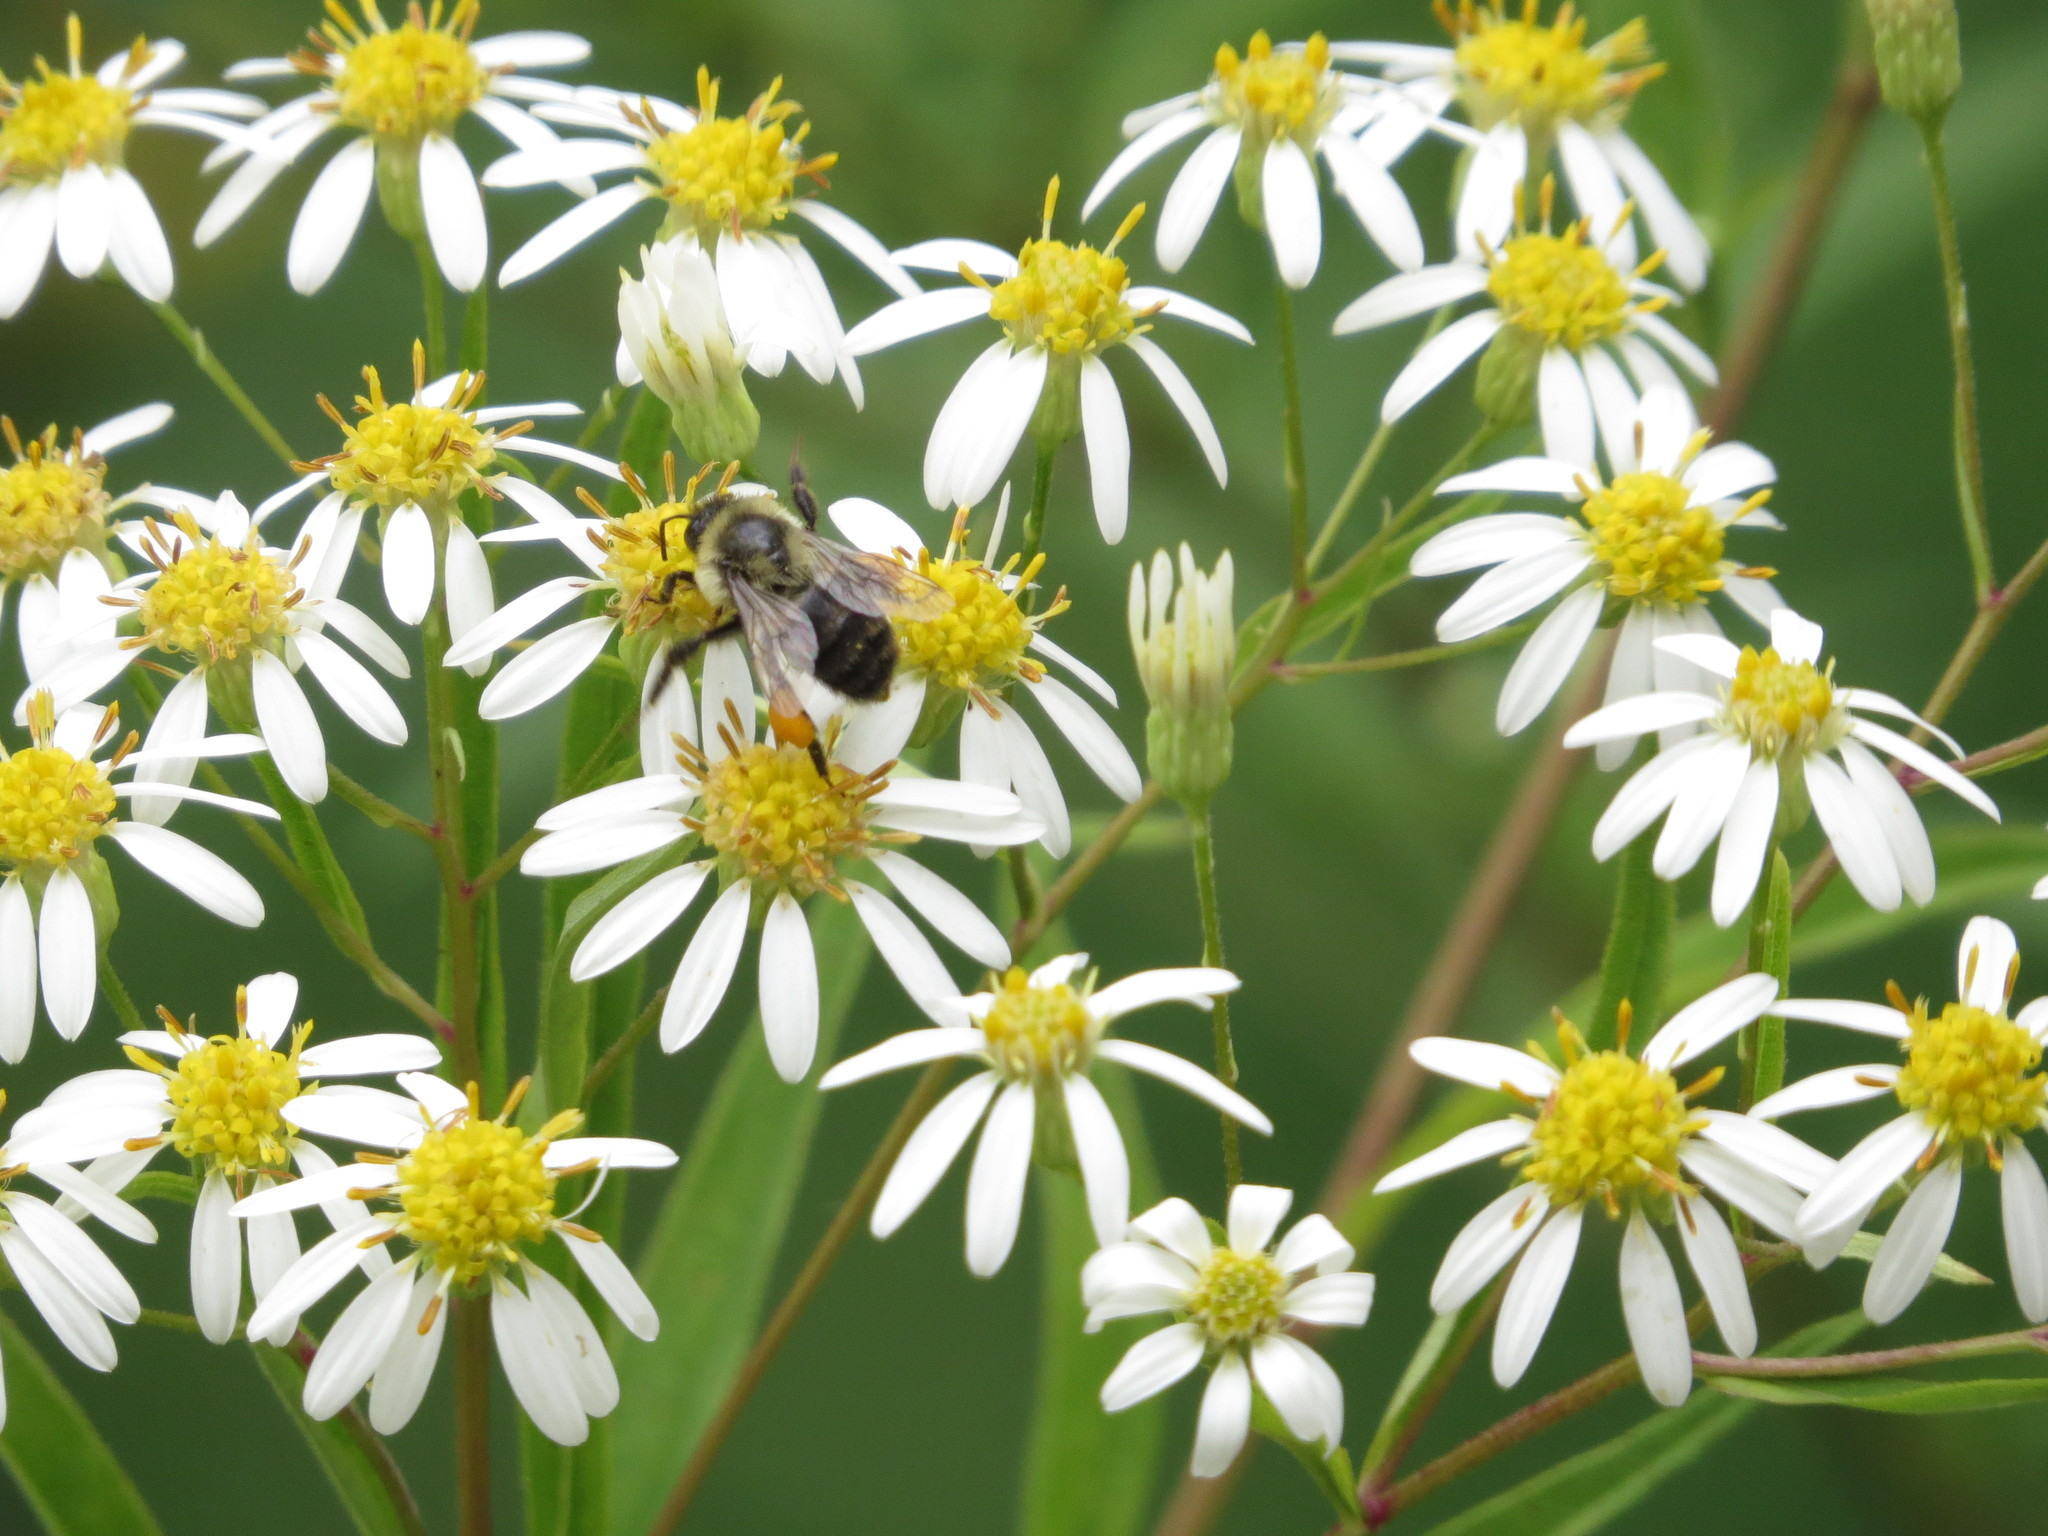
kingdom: Animalia
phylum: Arthropoda
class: Insecta
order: Hymenoptera
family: Apidae
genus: Bombus
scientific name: Bombus impatiens
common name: Common eastern bumble bee
